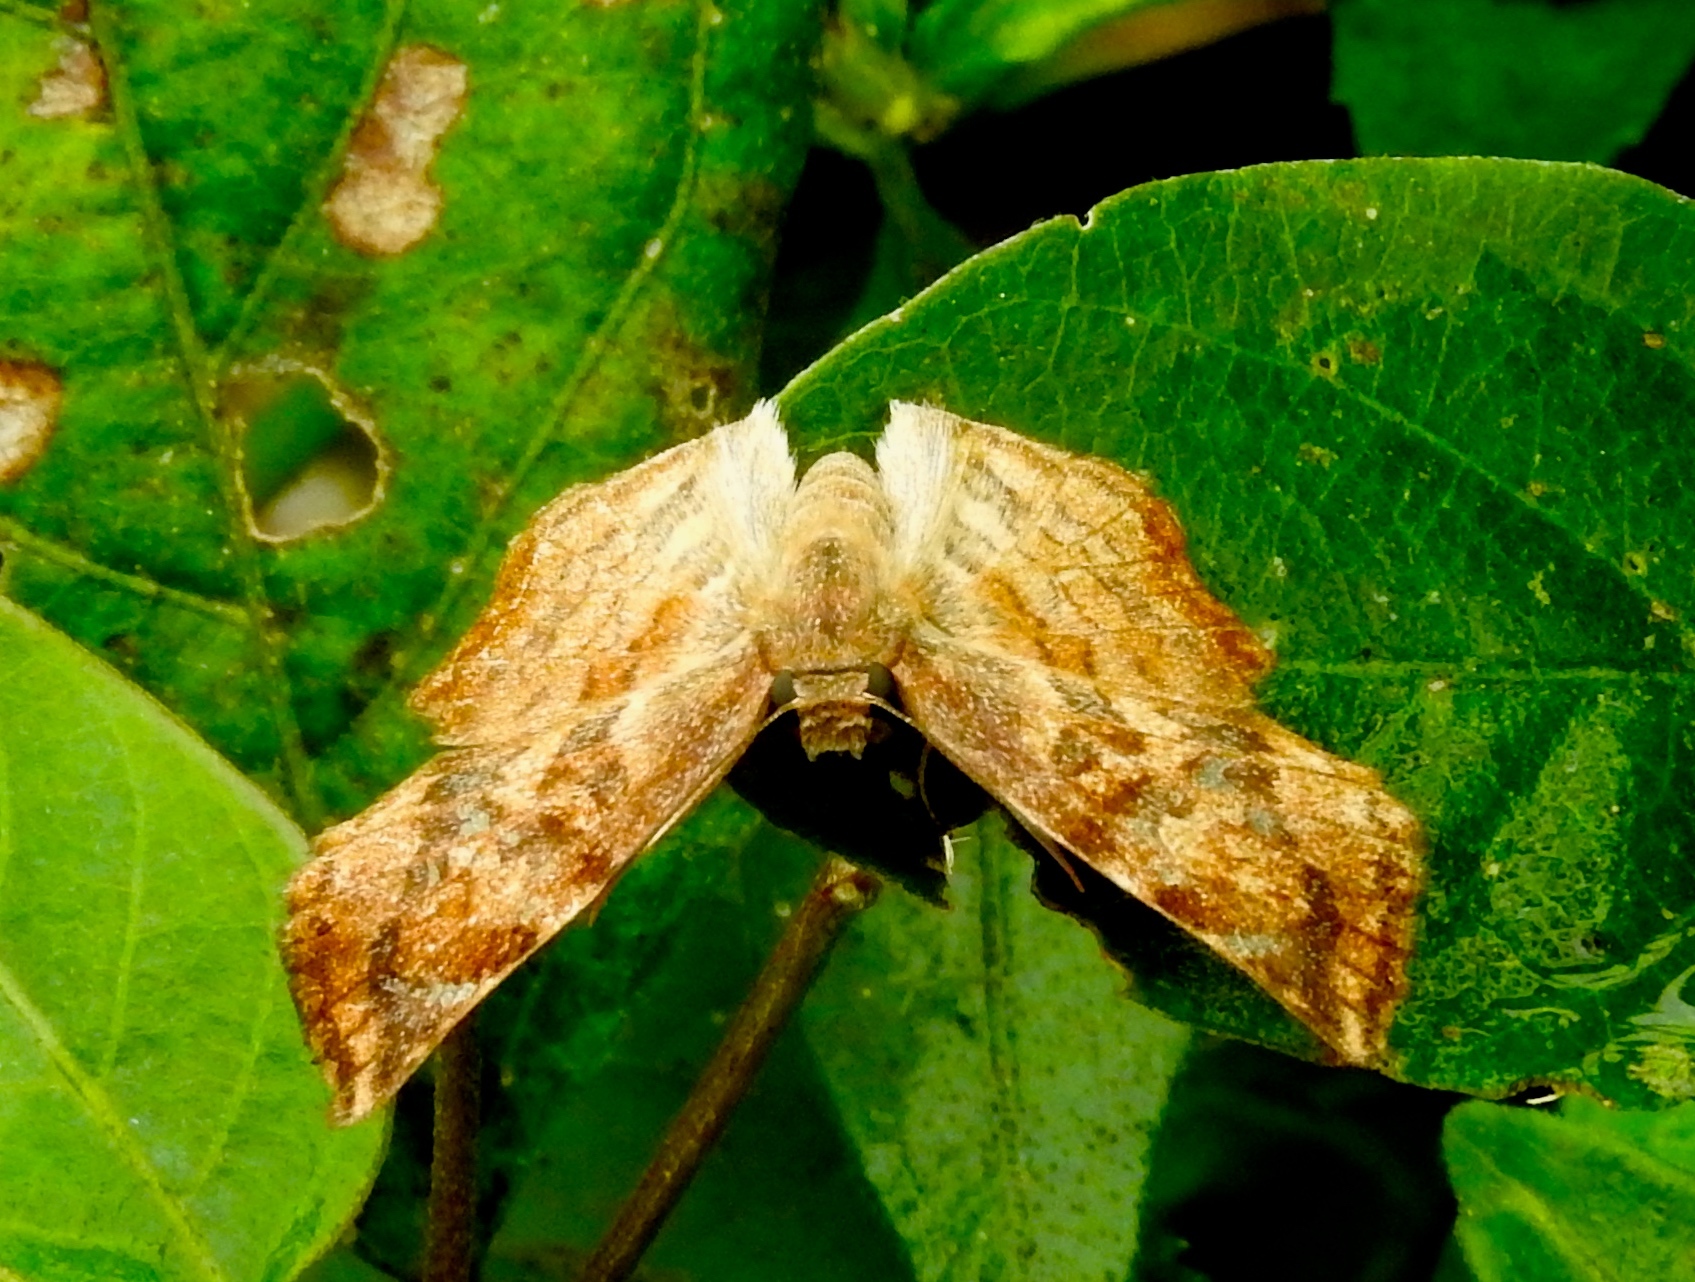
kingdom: Animalia
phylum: Arthropoda
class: Insecta
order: Lepidoptera
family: Hesperiidae
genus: Antigonus
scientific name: Antigonus erosus
